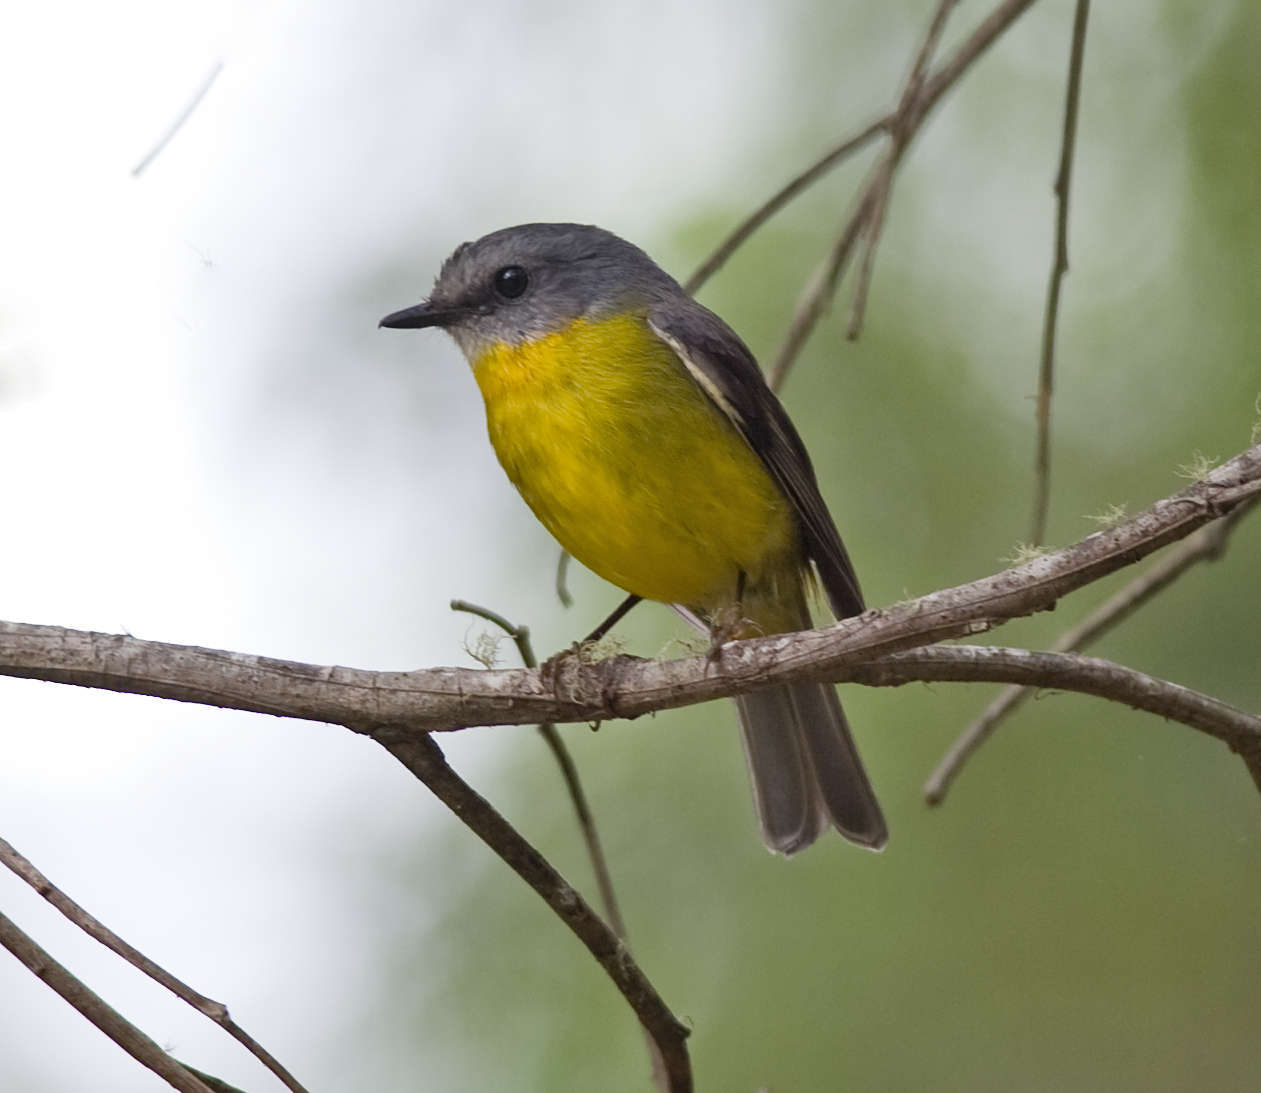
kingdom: Animalia
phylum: Chordata
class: Aves
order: Passeriformes
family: Petroicidae
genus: Eopsaltria
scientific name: Eopsaltria australis
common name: Eastern yellow robin
